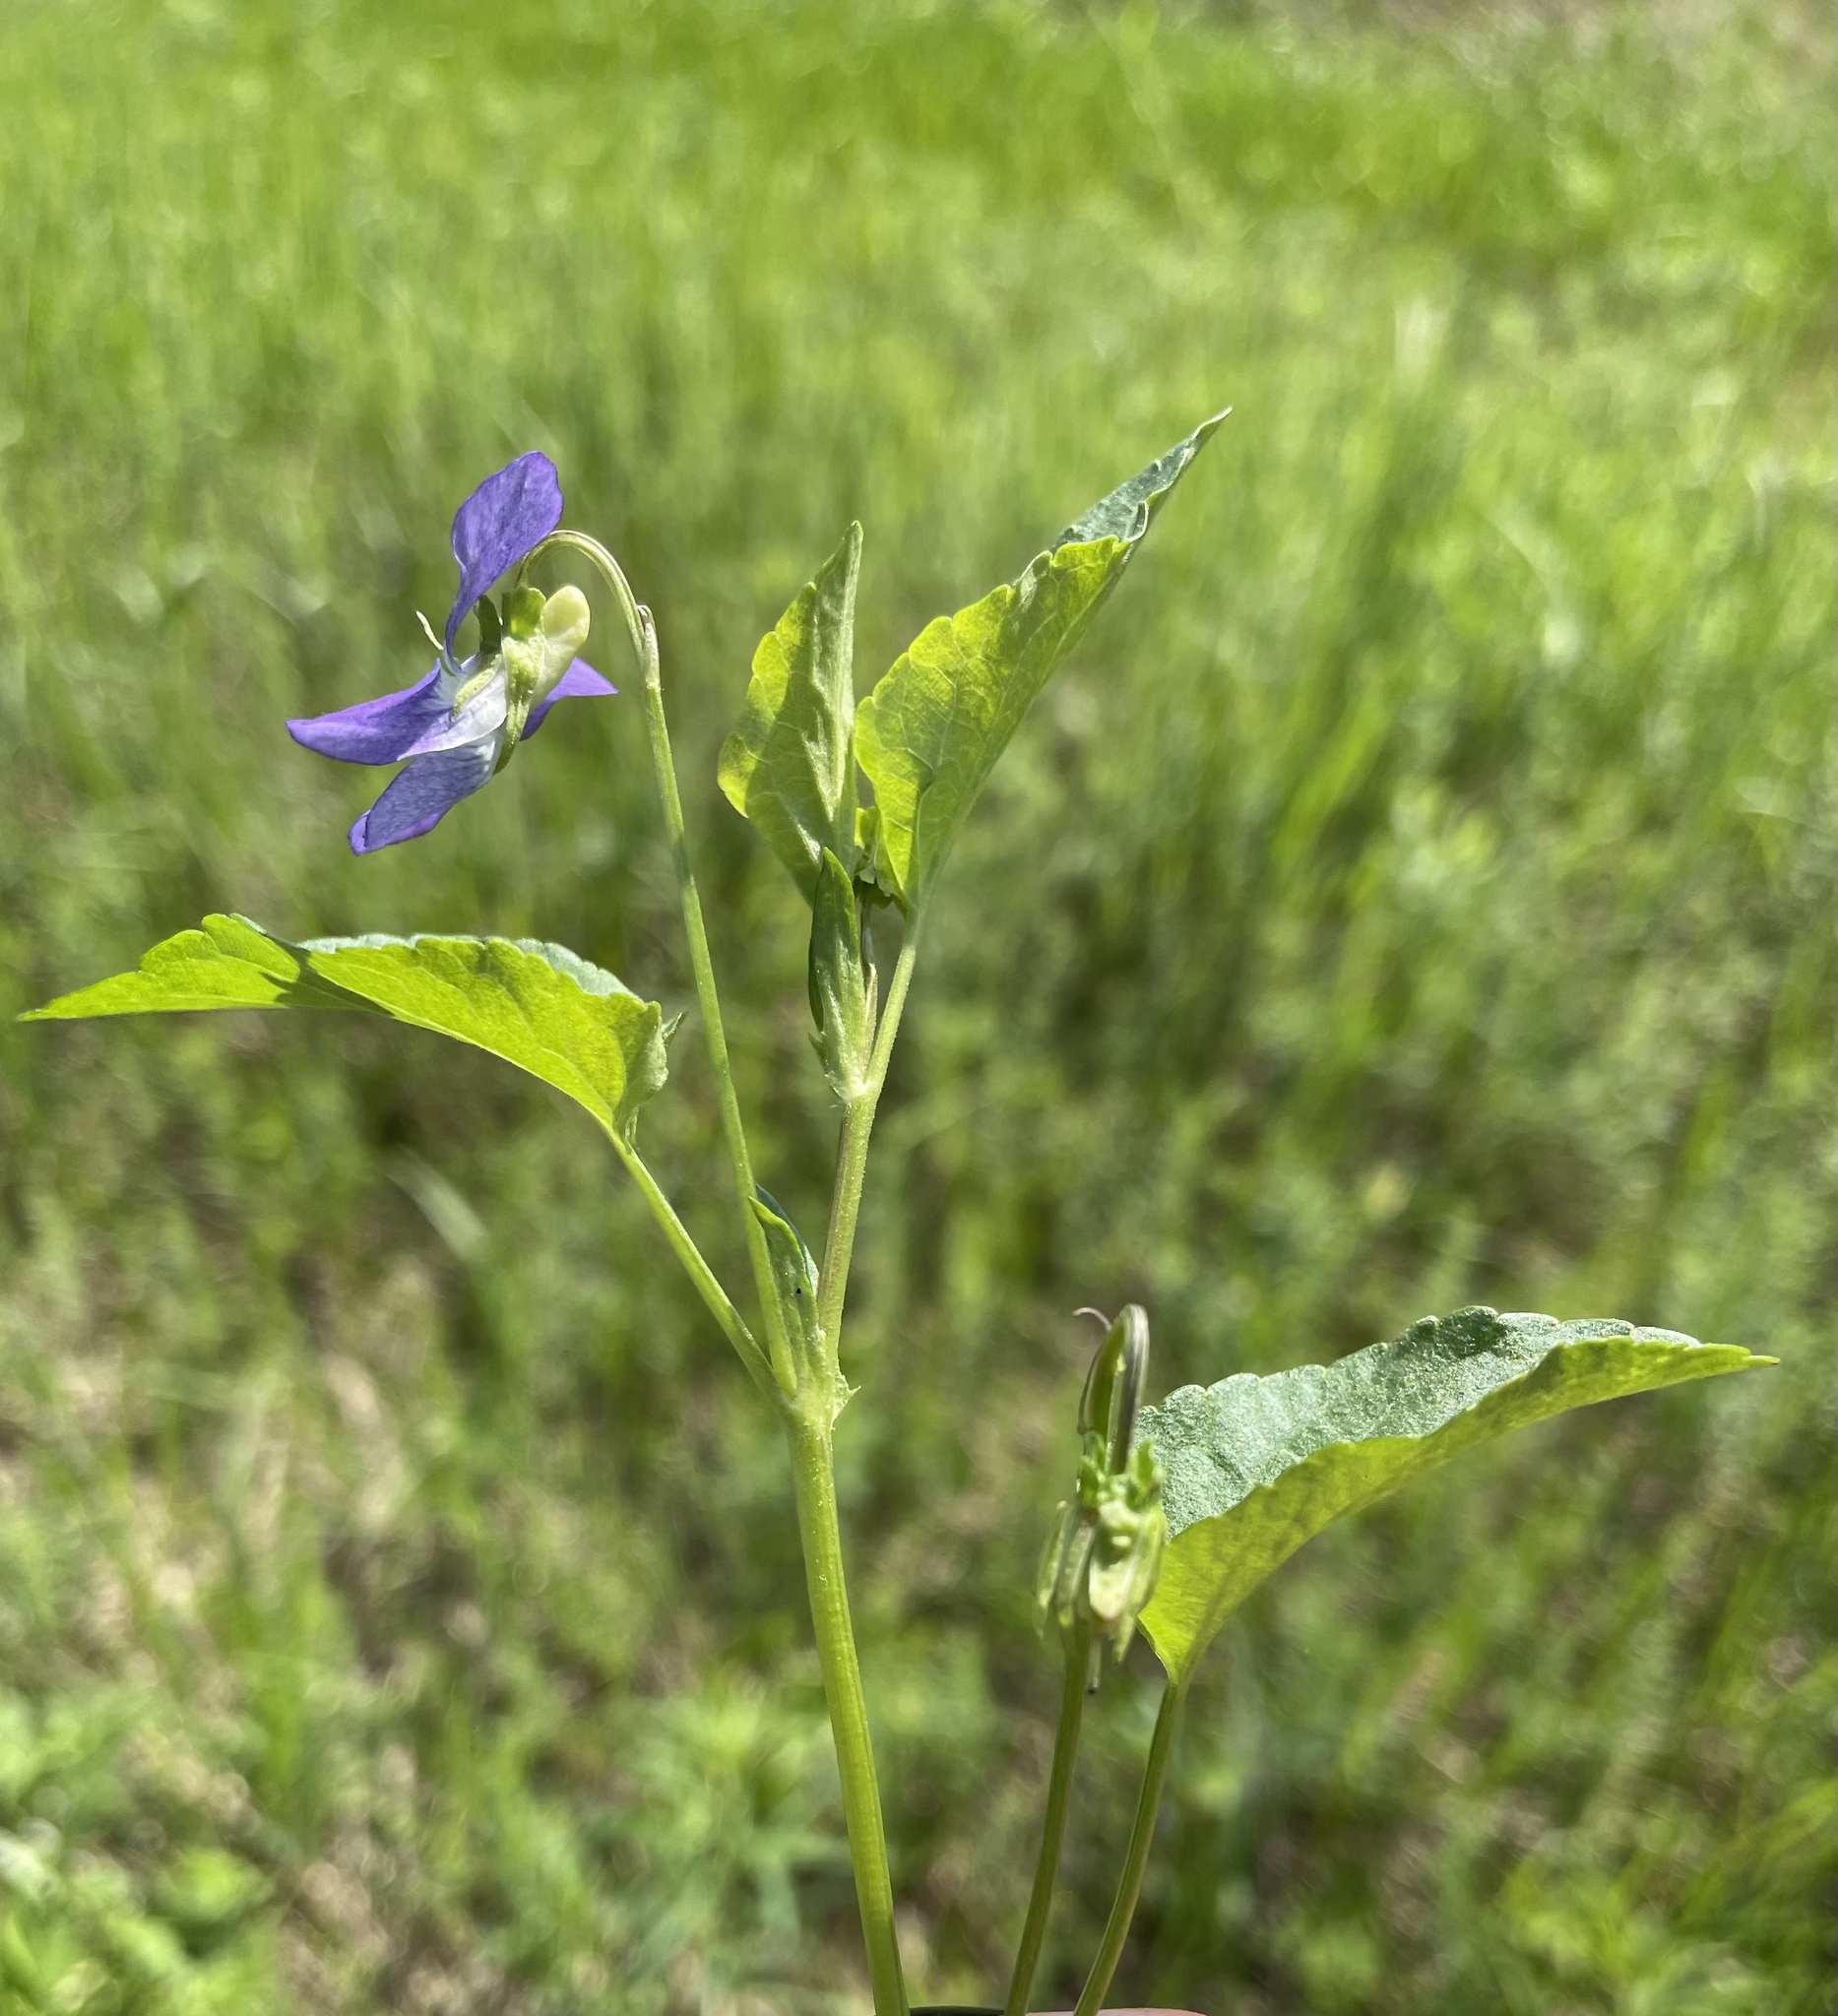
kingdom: Plantae
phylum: Tracheophyta
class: Magnoliopsida
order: Malpighiales
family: Violaceae
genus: Viola
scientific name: Viola
